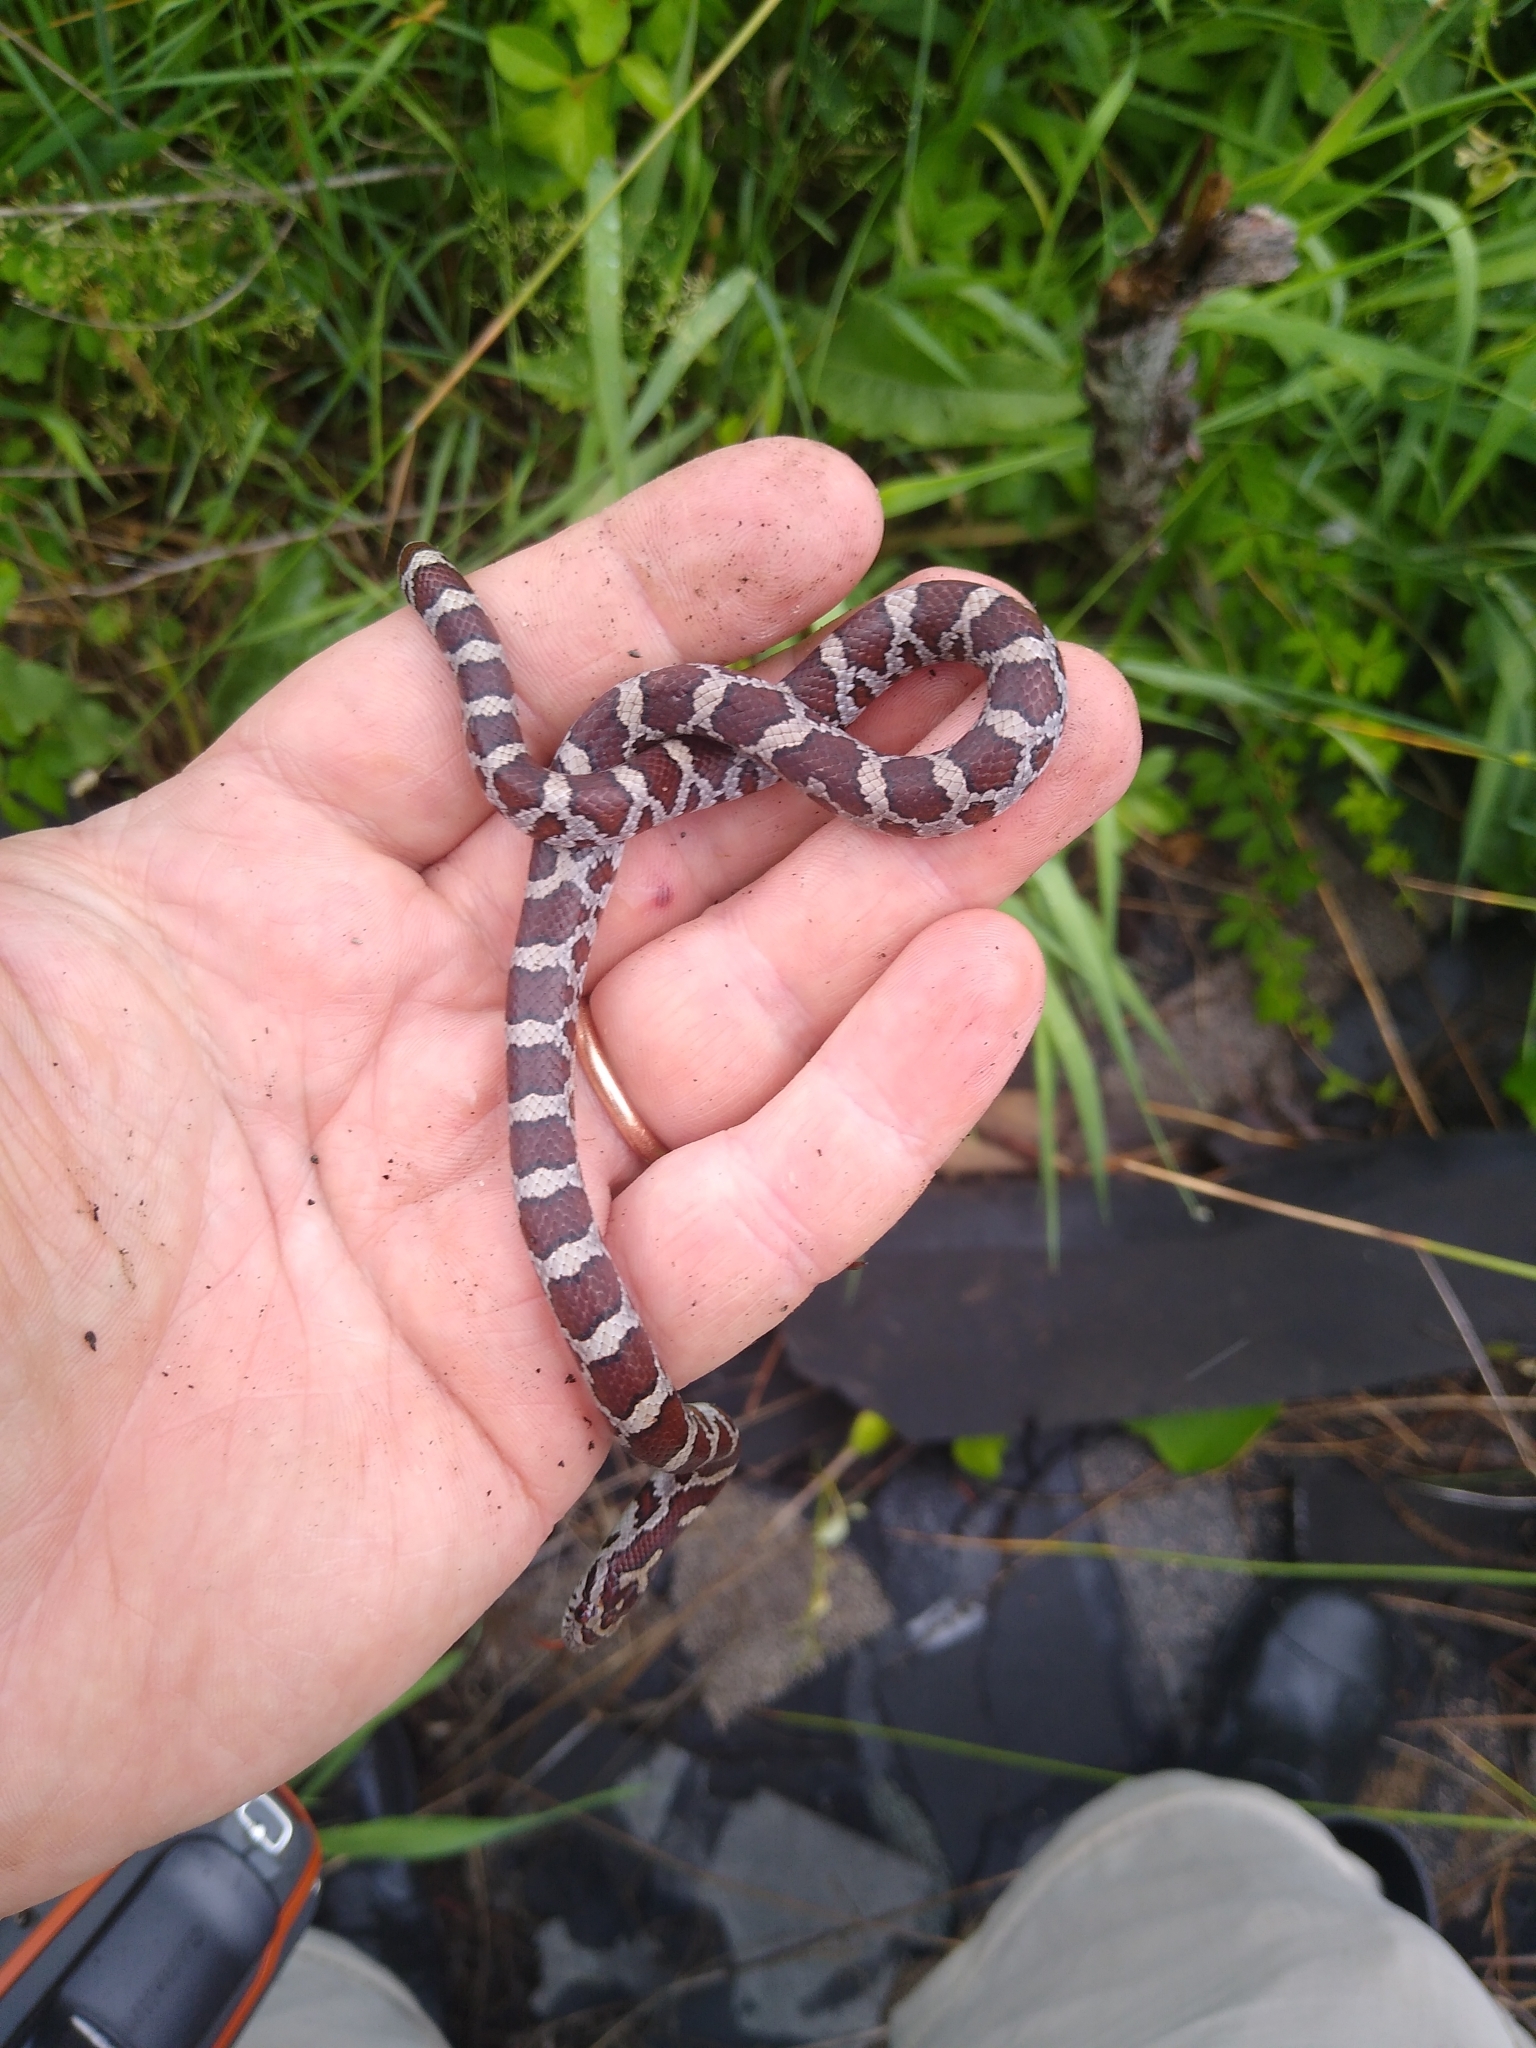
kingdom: Animalia
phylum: Chordata
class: Squamata
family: Colubridae
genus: Lampropeltis
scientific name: Lampropeltis triangulum
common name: Eastern milksnake
